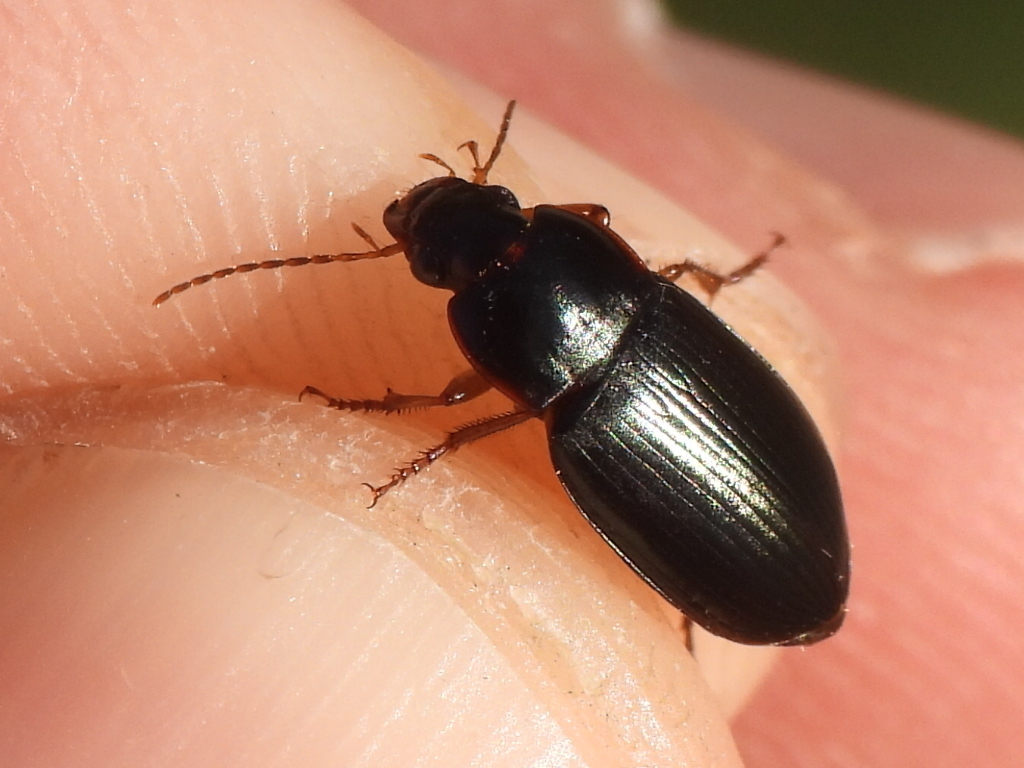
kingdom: Animalia
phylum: Arthropoda
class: Insecta
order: Coleoptera
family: Carabidae
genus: Notiobia
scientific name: Notiobia terminata
